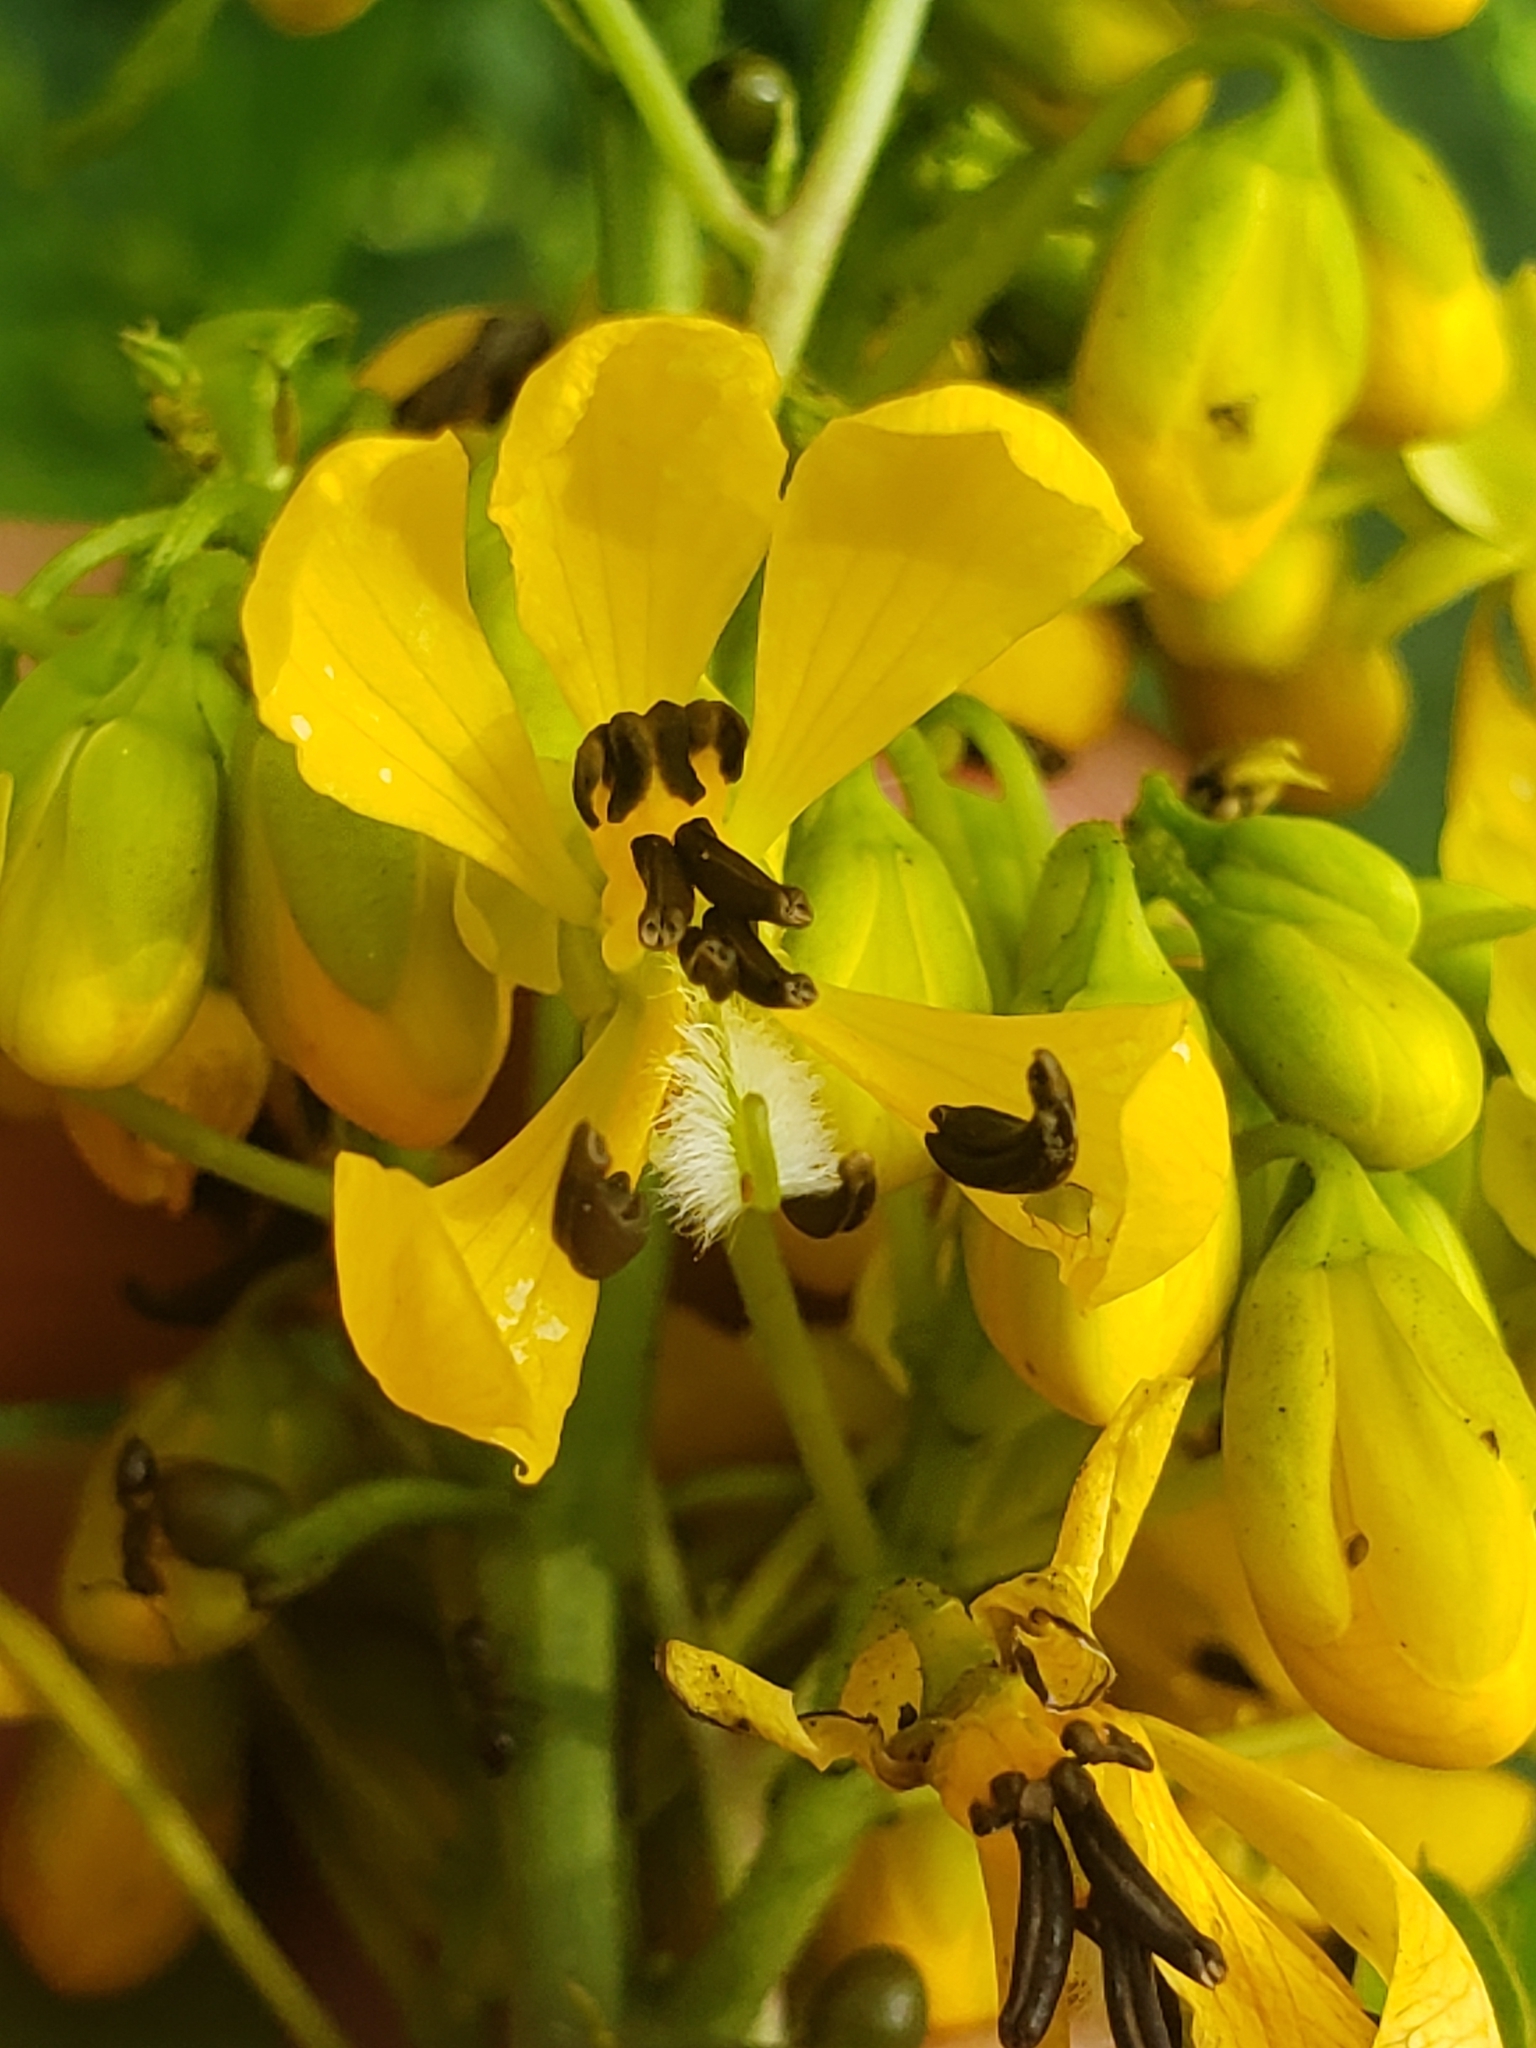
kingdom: Plantae
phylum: Tracheophyta
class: Magnoliopsida
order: Fabales
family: Fabaceae
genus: Senna
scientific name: Senna hebecarpa
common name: Wild senna
